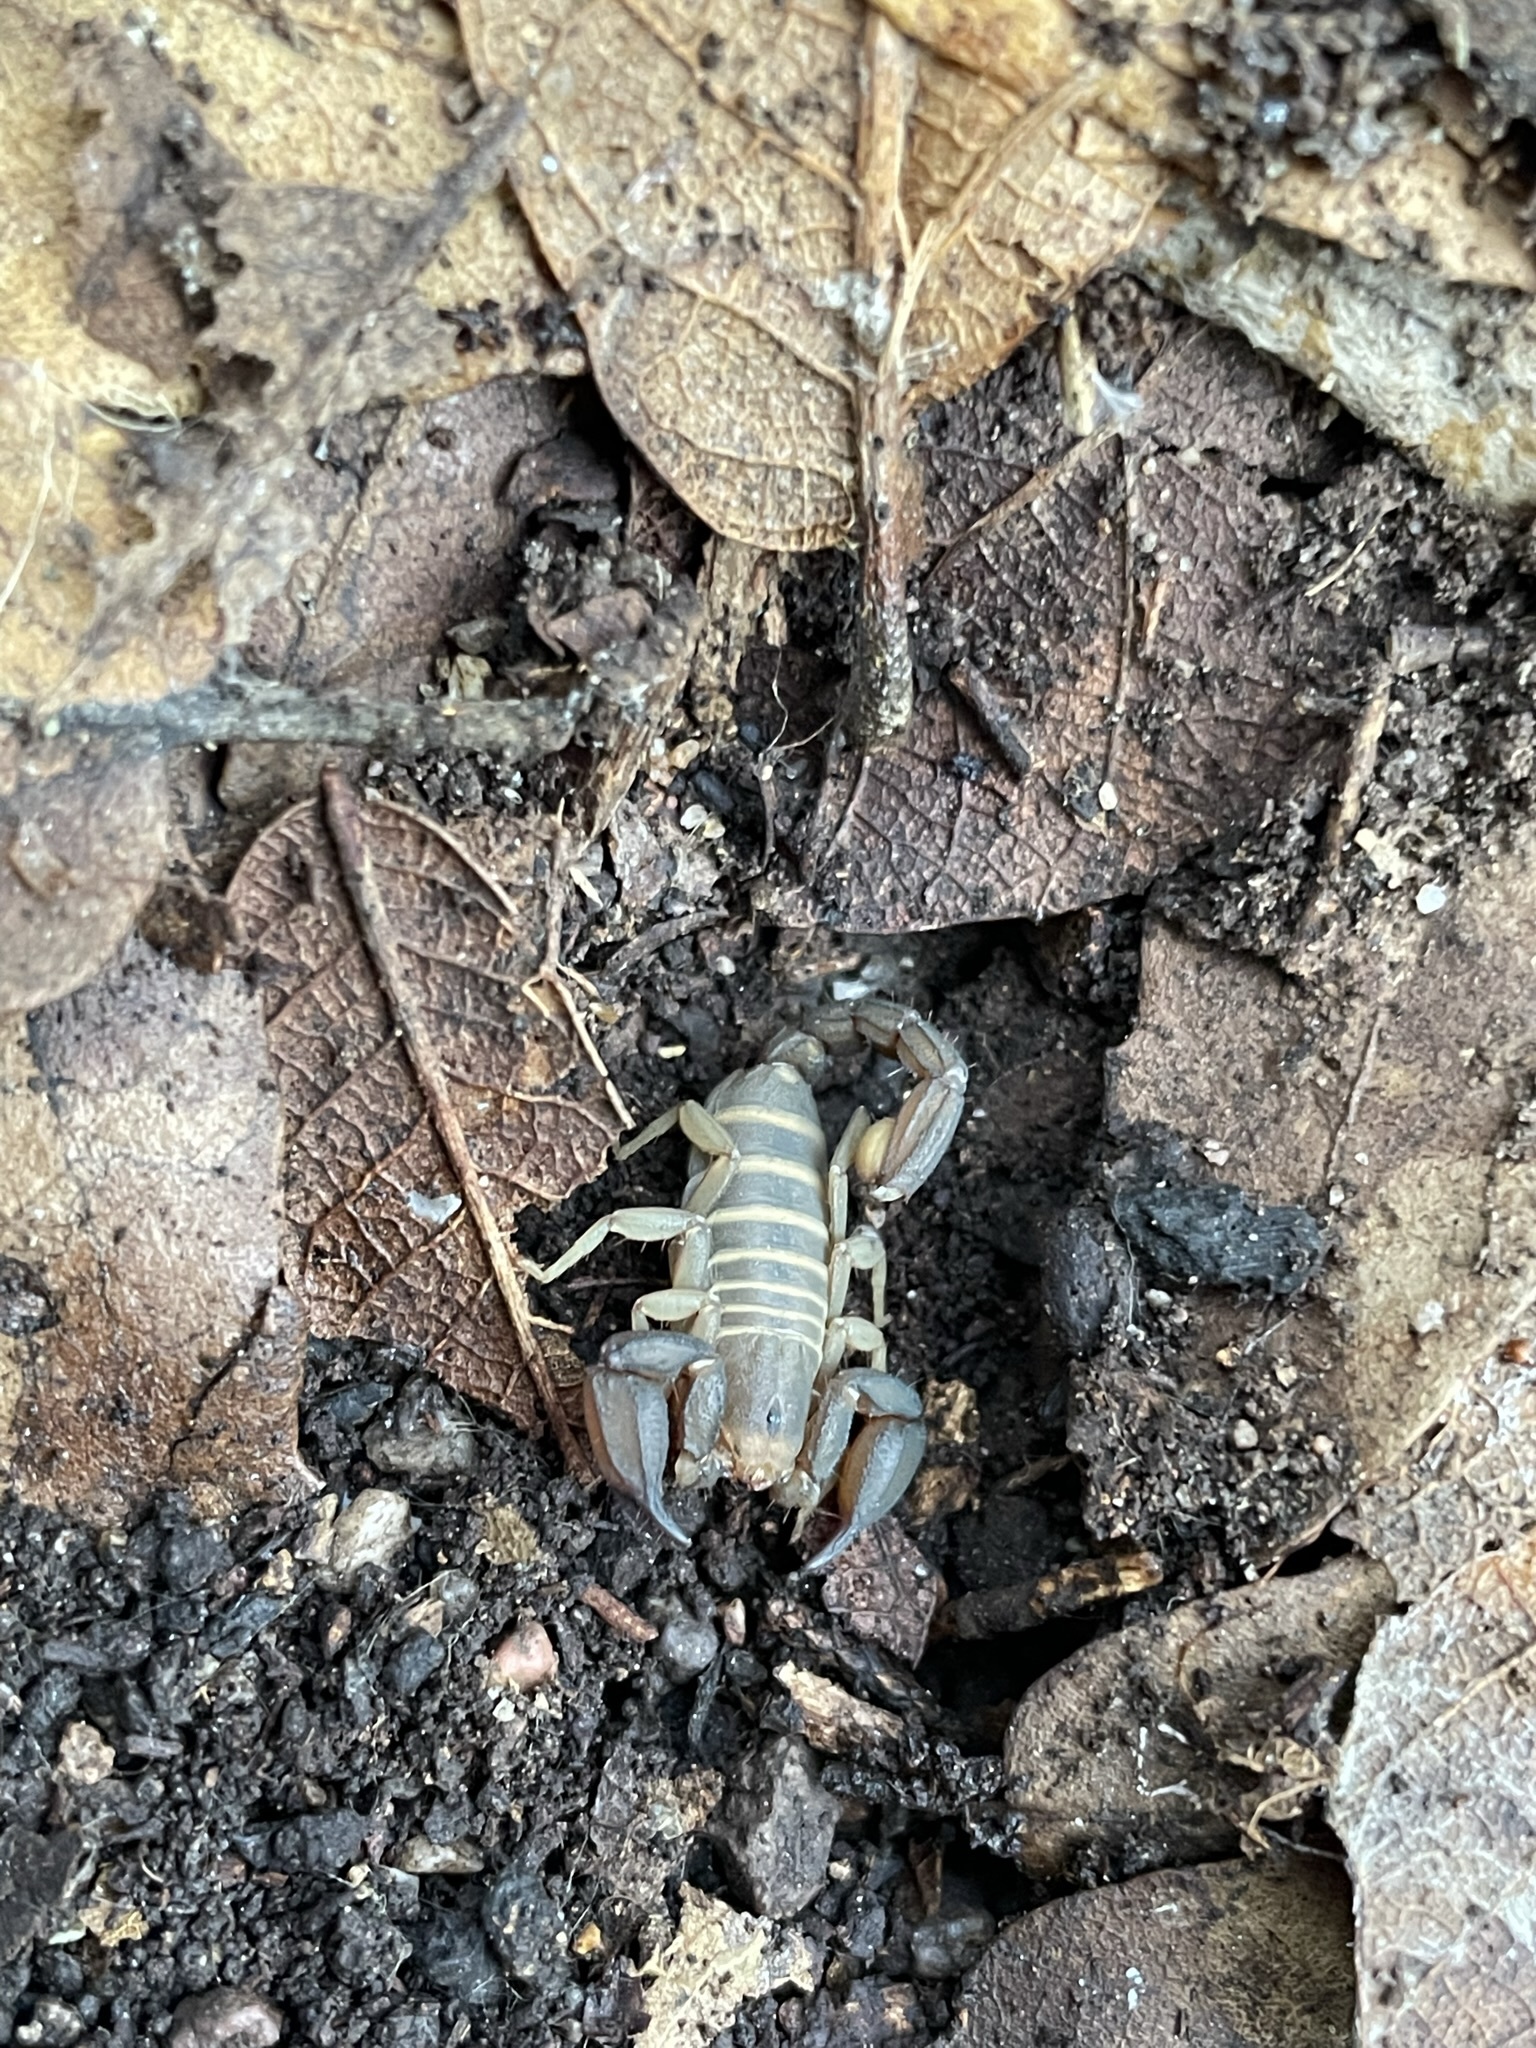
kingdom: Animalia
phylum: Arthropoda
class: Arachnida
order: Scorpiones
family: Vaejovidae
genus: Pseudouroctonus
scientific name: Pseudouroctonus santarita
